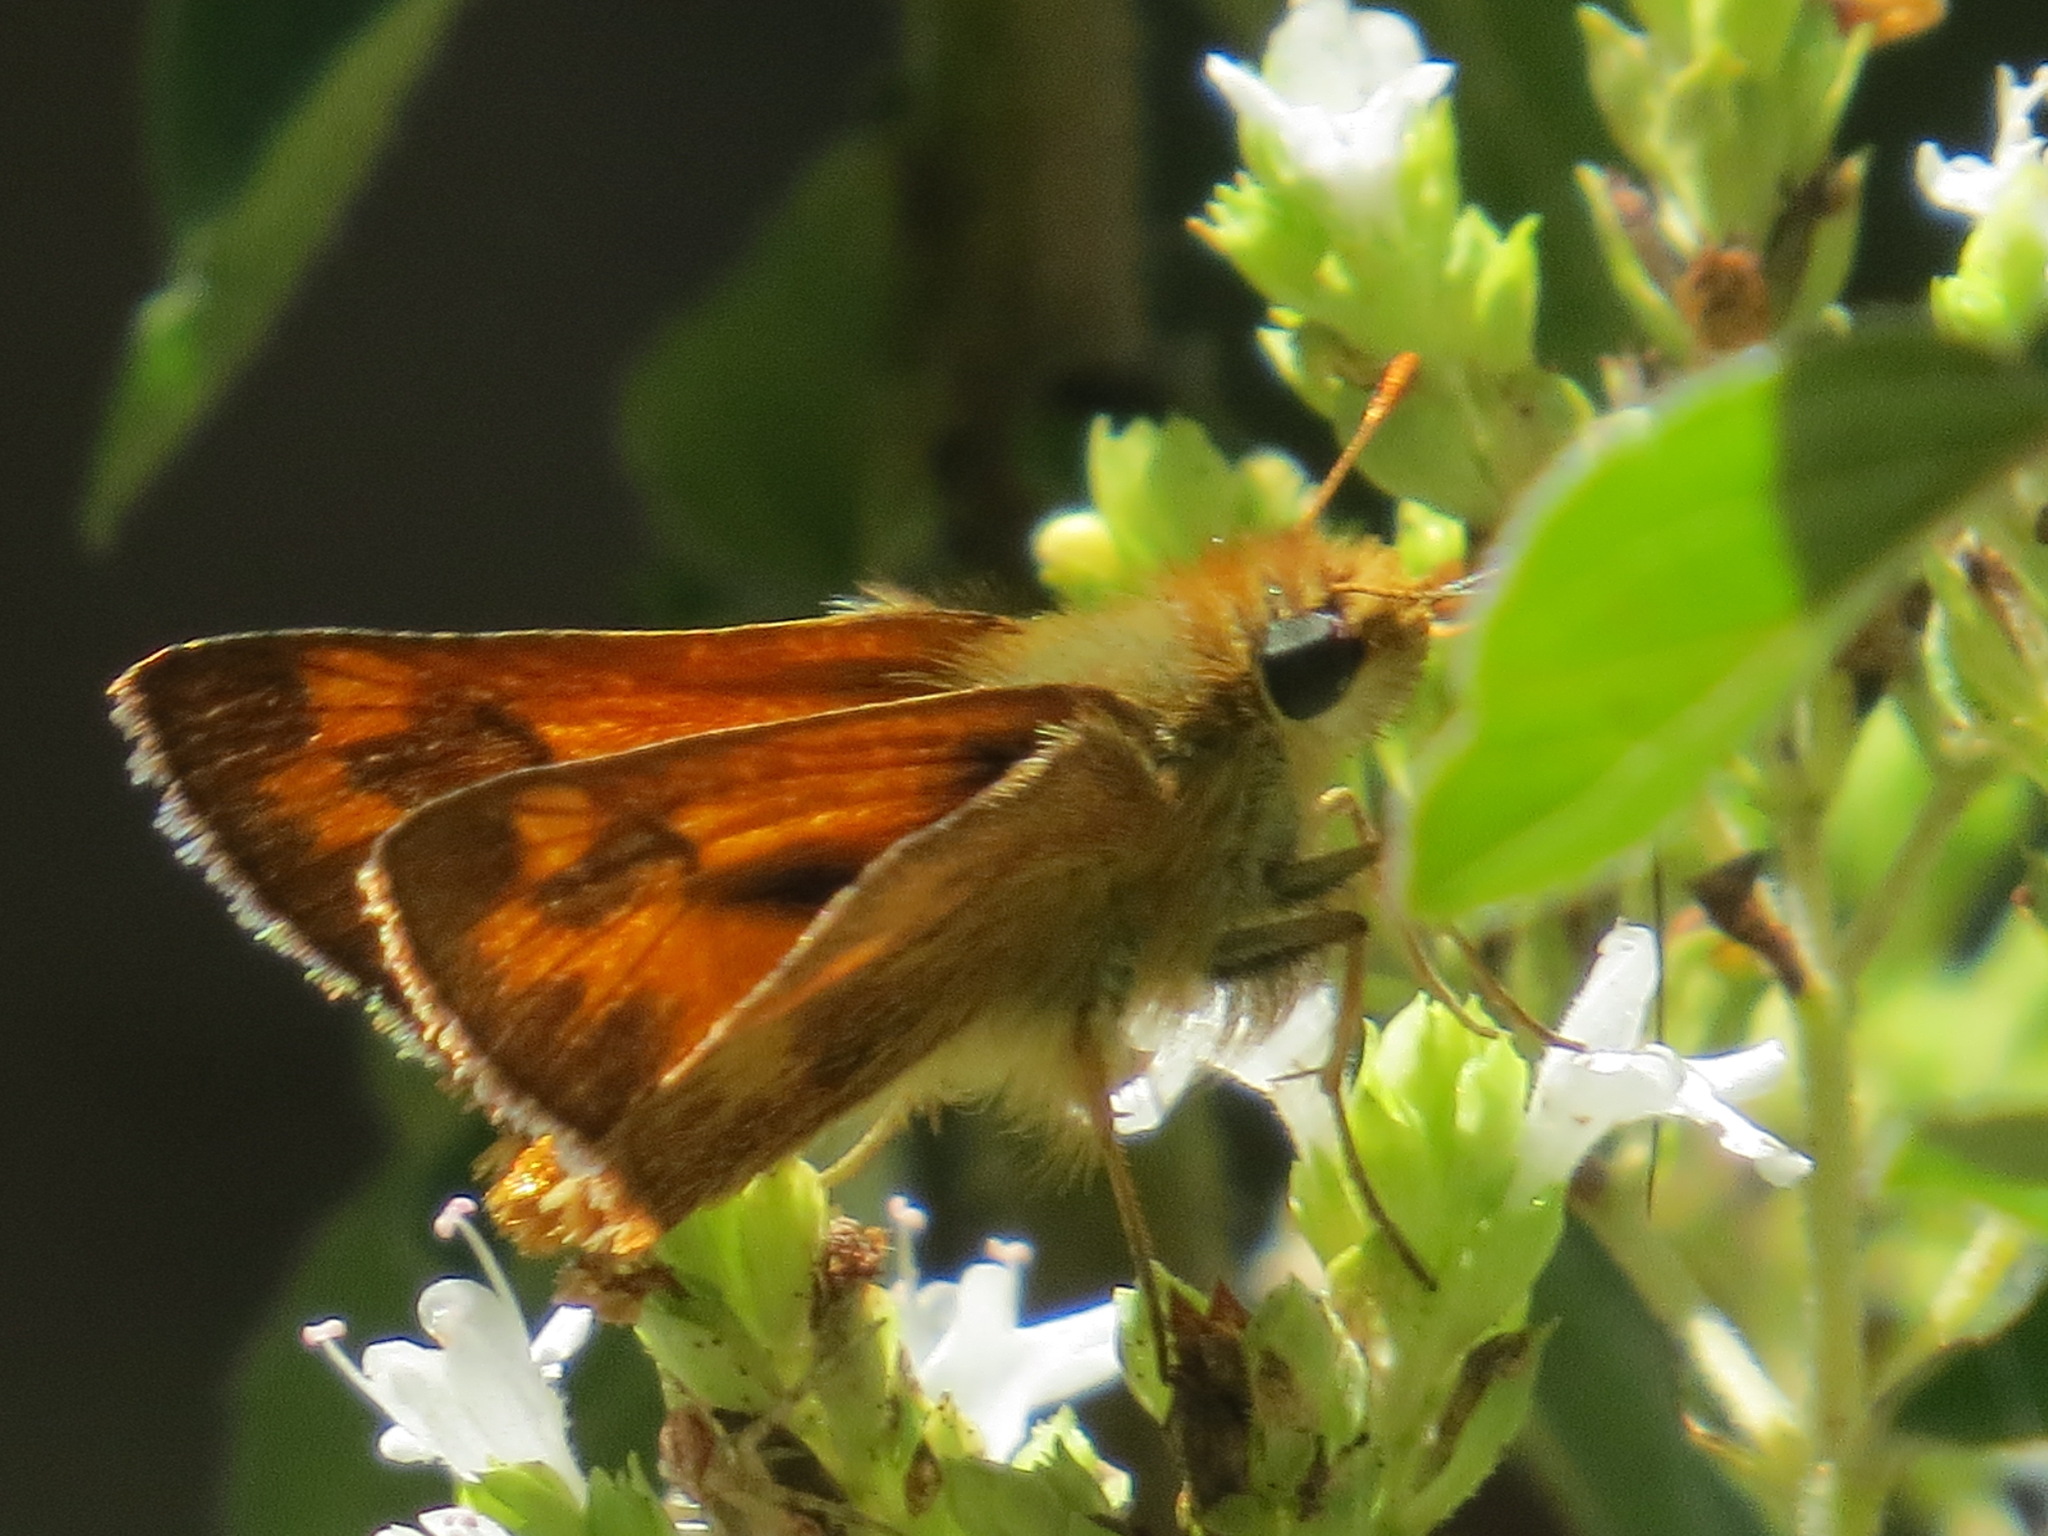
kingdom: Animalia
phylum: Arthropoda
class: Insecta
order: Lepidoptera
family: Hesperiidae
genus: Ochlodes
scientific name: Ochlodes sylvanoides
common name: Woodland skipper
